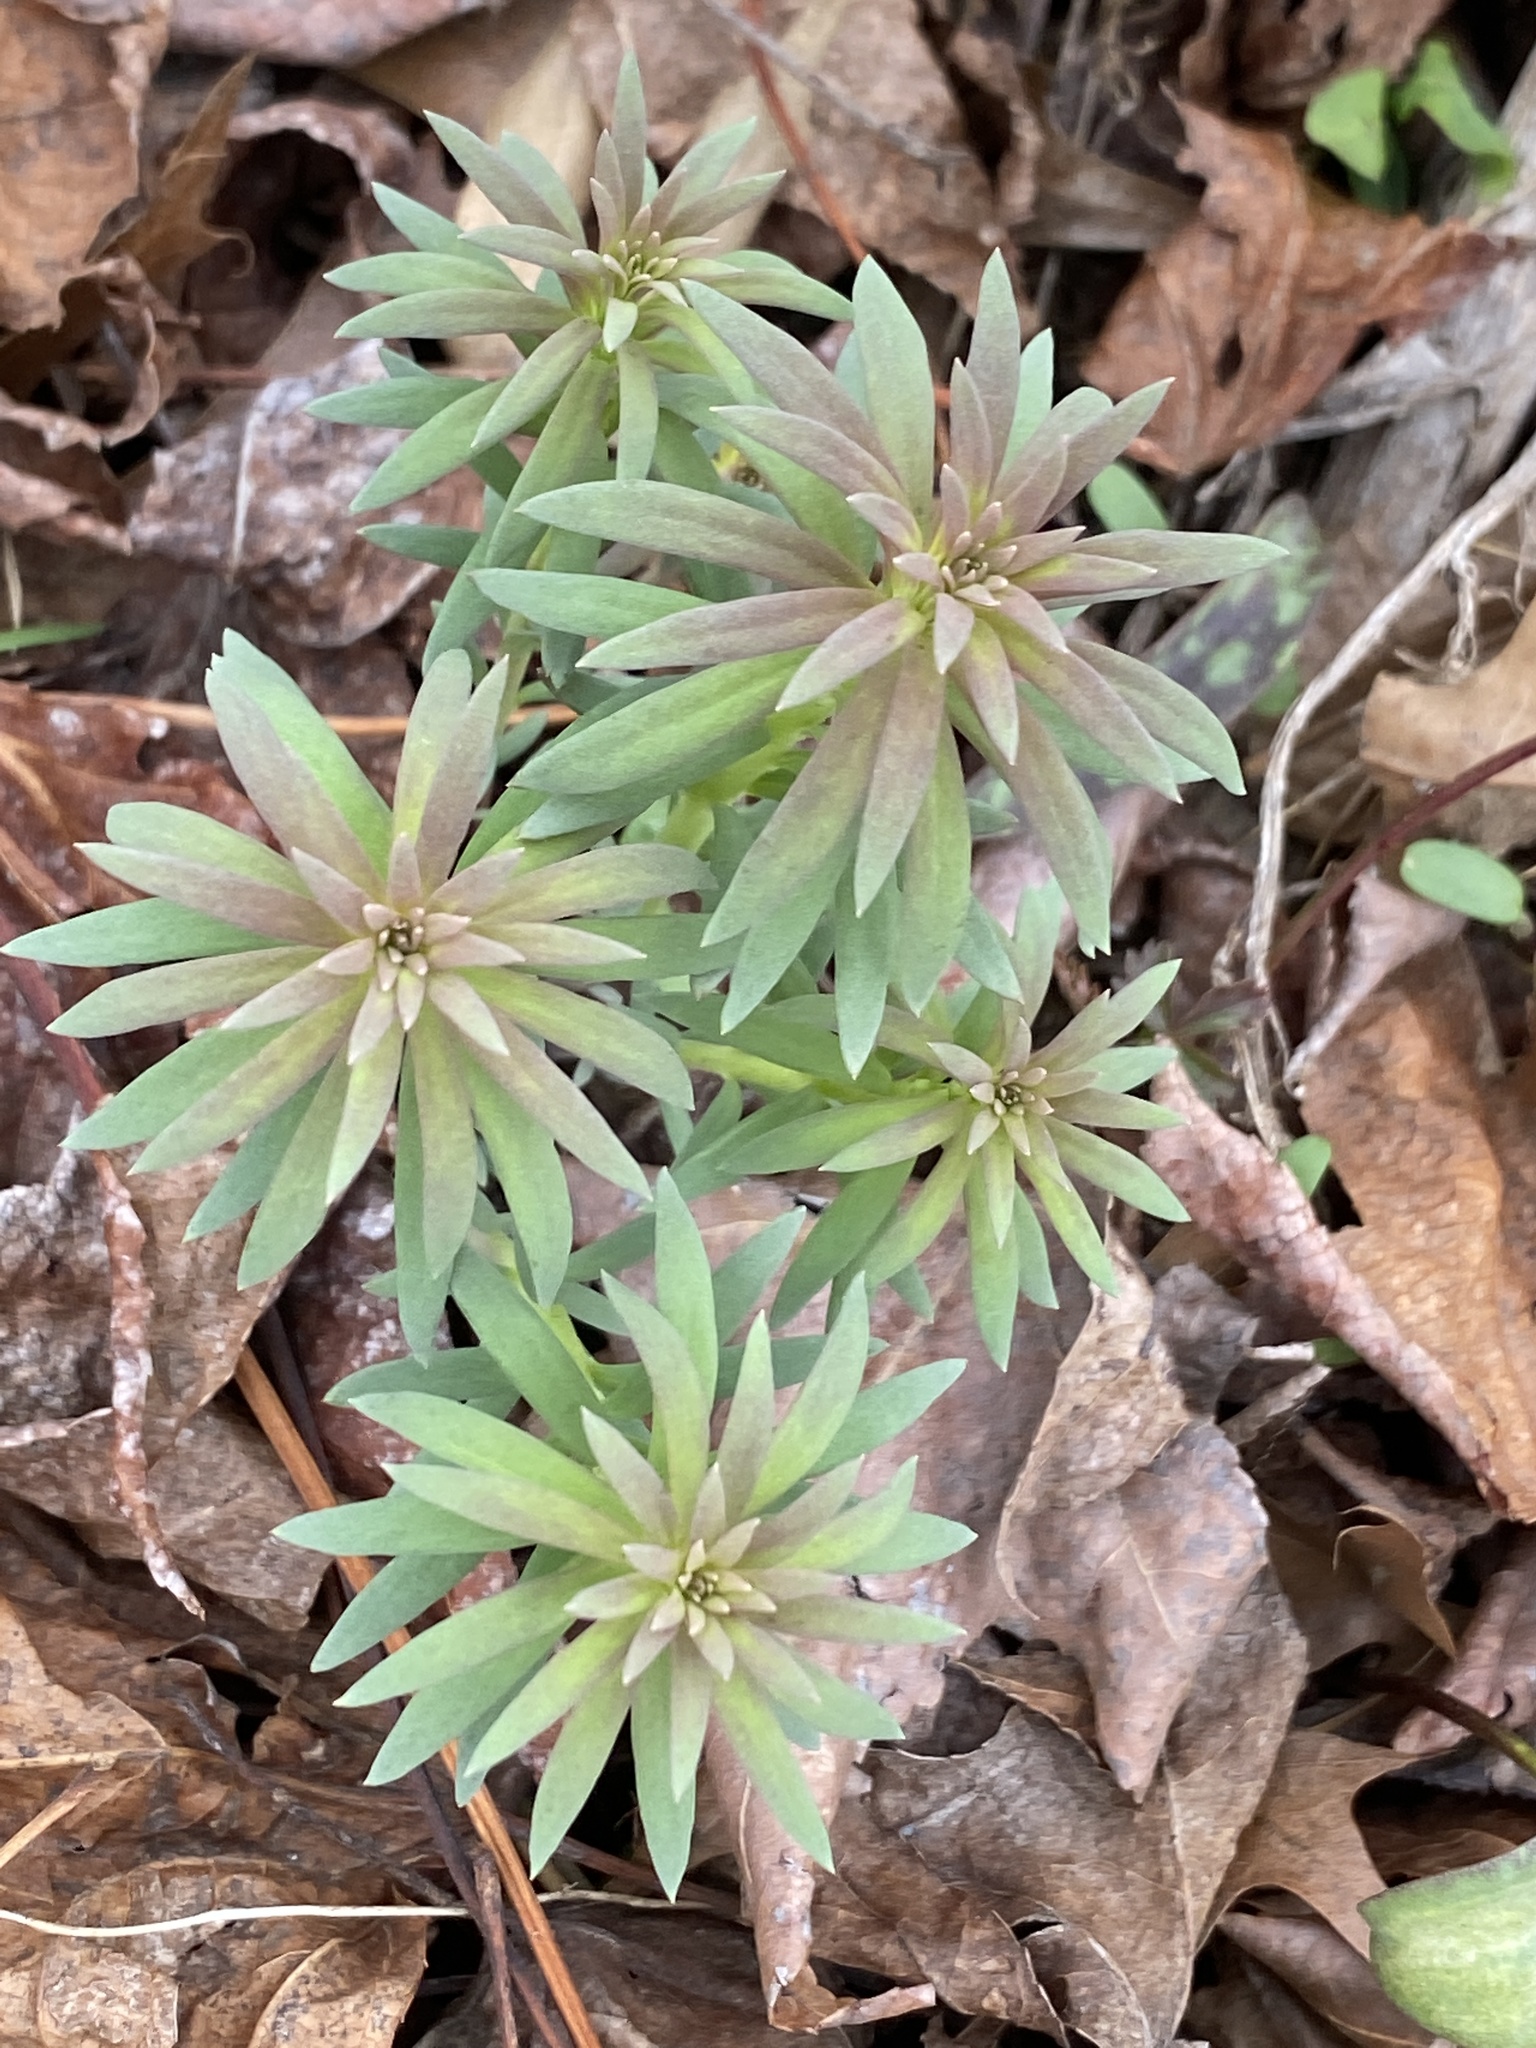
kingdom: Plantae
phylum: Tracheophyta
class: Magnoliopsida
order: Malpighiales
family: Euphorbiaceae
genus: Euphorbia
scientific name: Euphorbia cyparissias
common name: Cypress spurge
